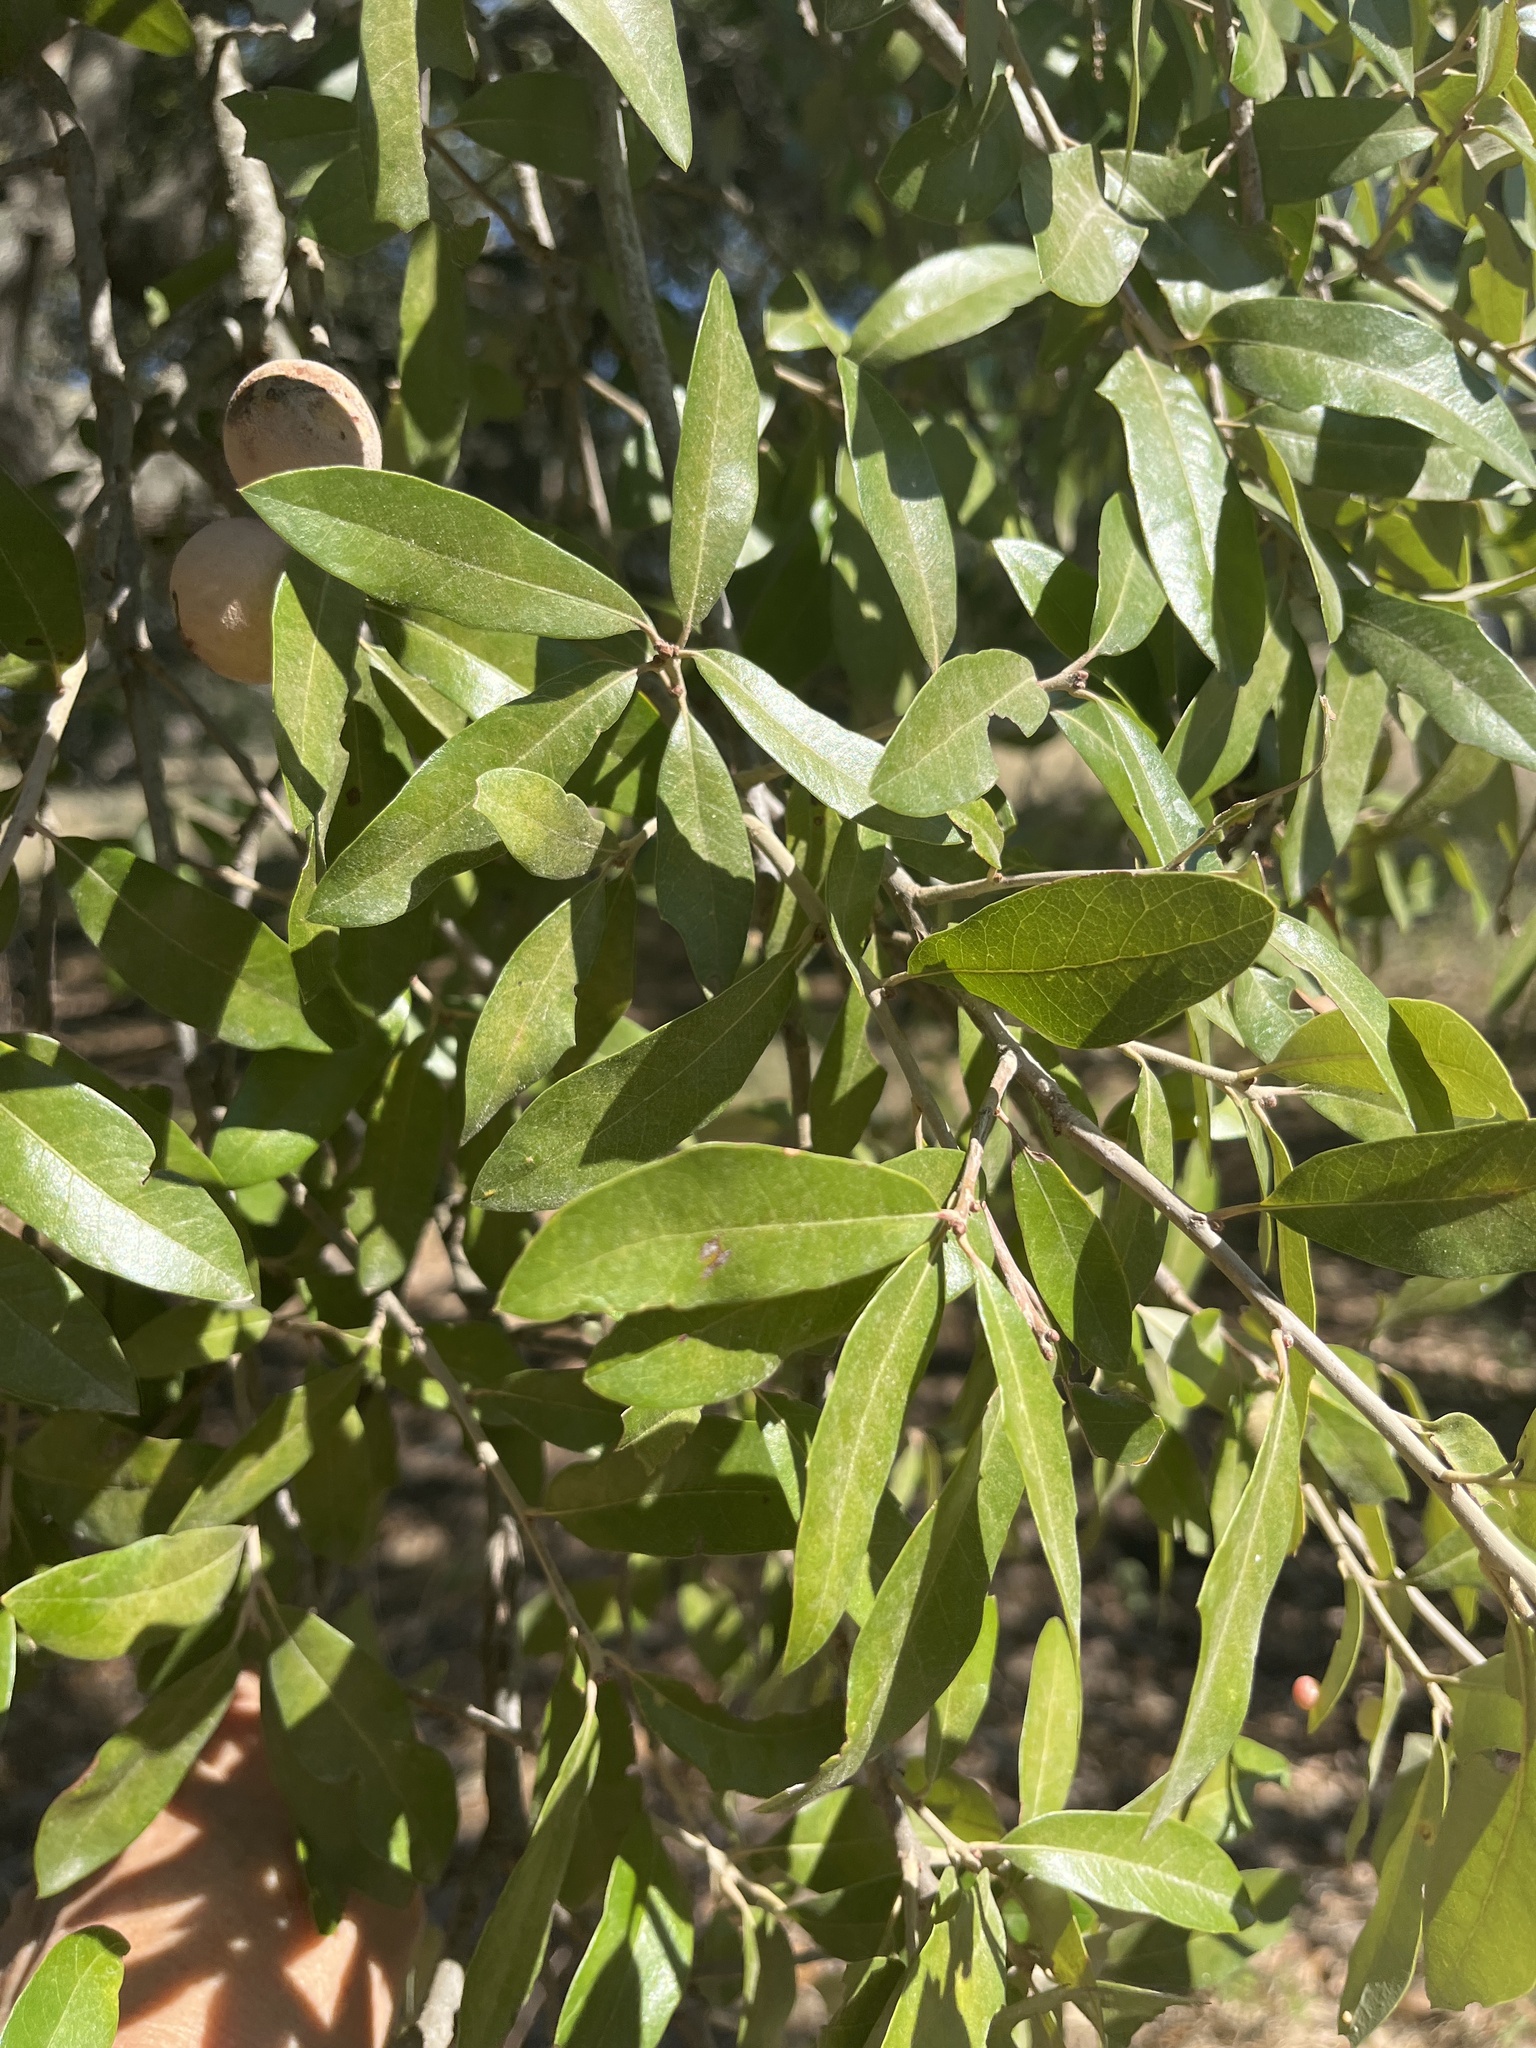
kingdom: Plantae
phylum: Tracheophyta
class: Magnoliopsida
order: Fagales
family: Fagaceae
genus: Quercus
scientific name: Quercus fusiformis
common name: Texas live oak
